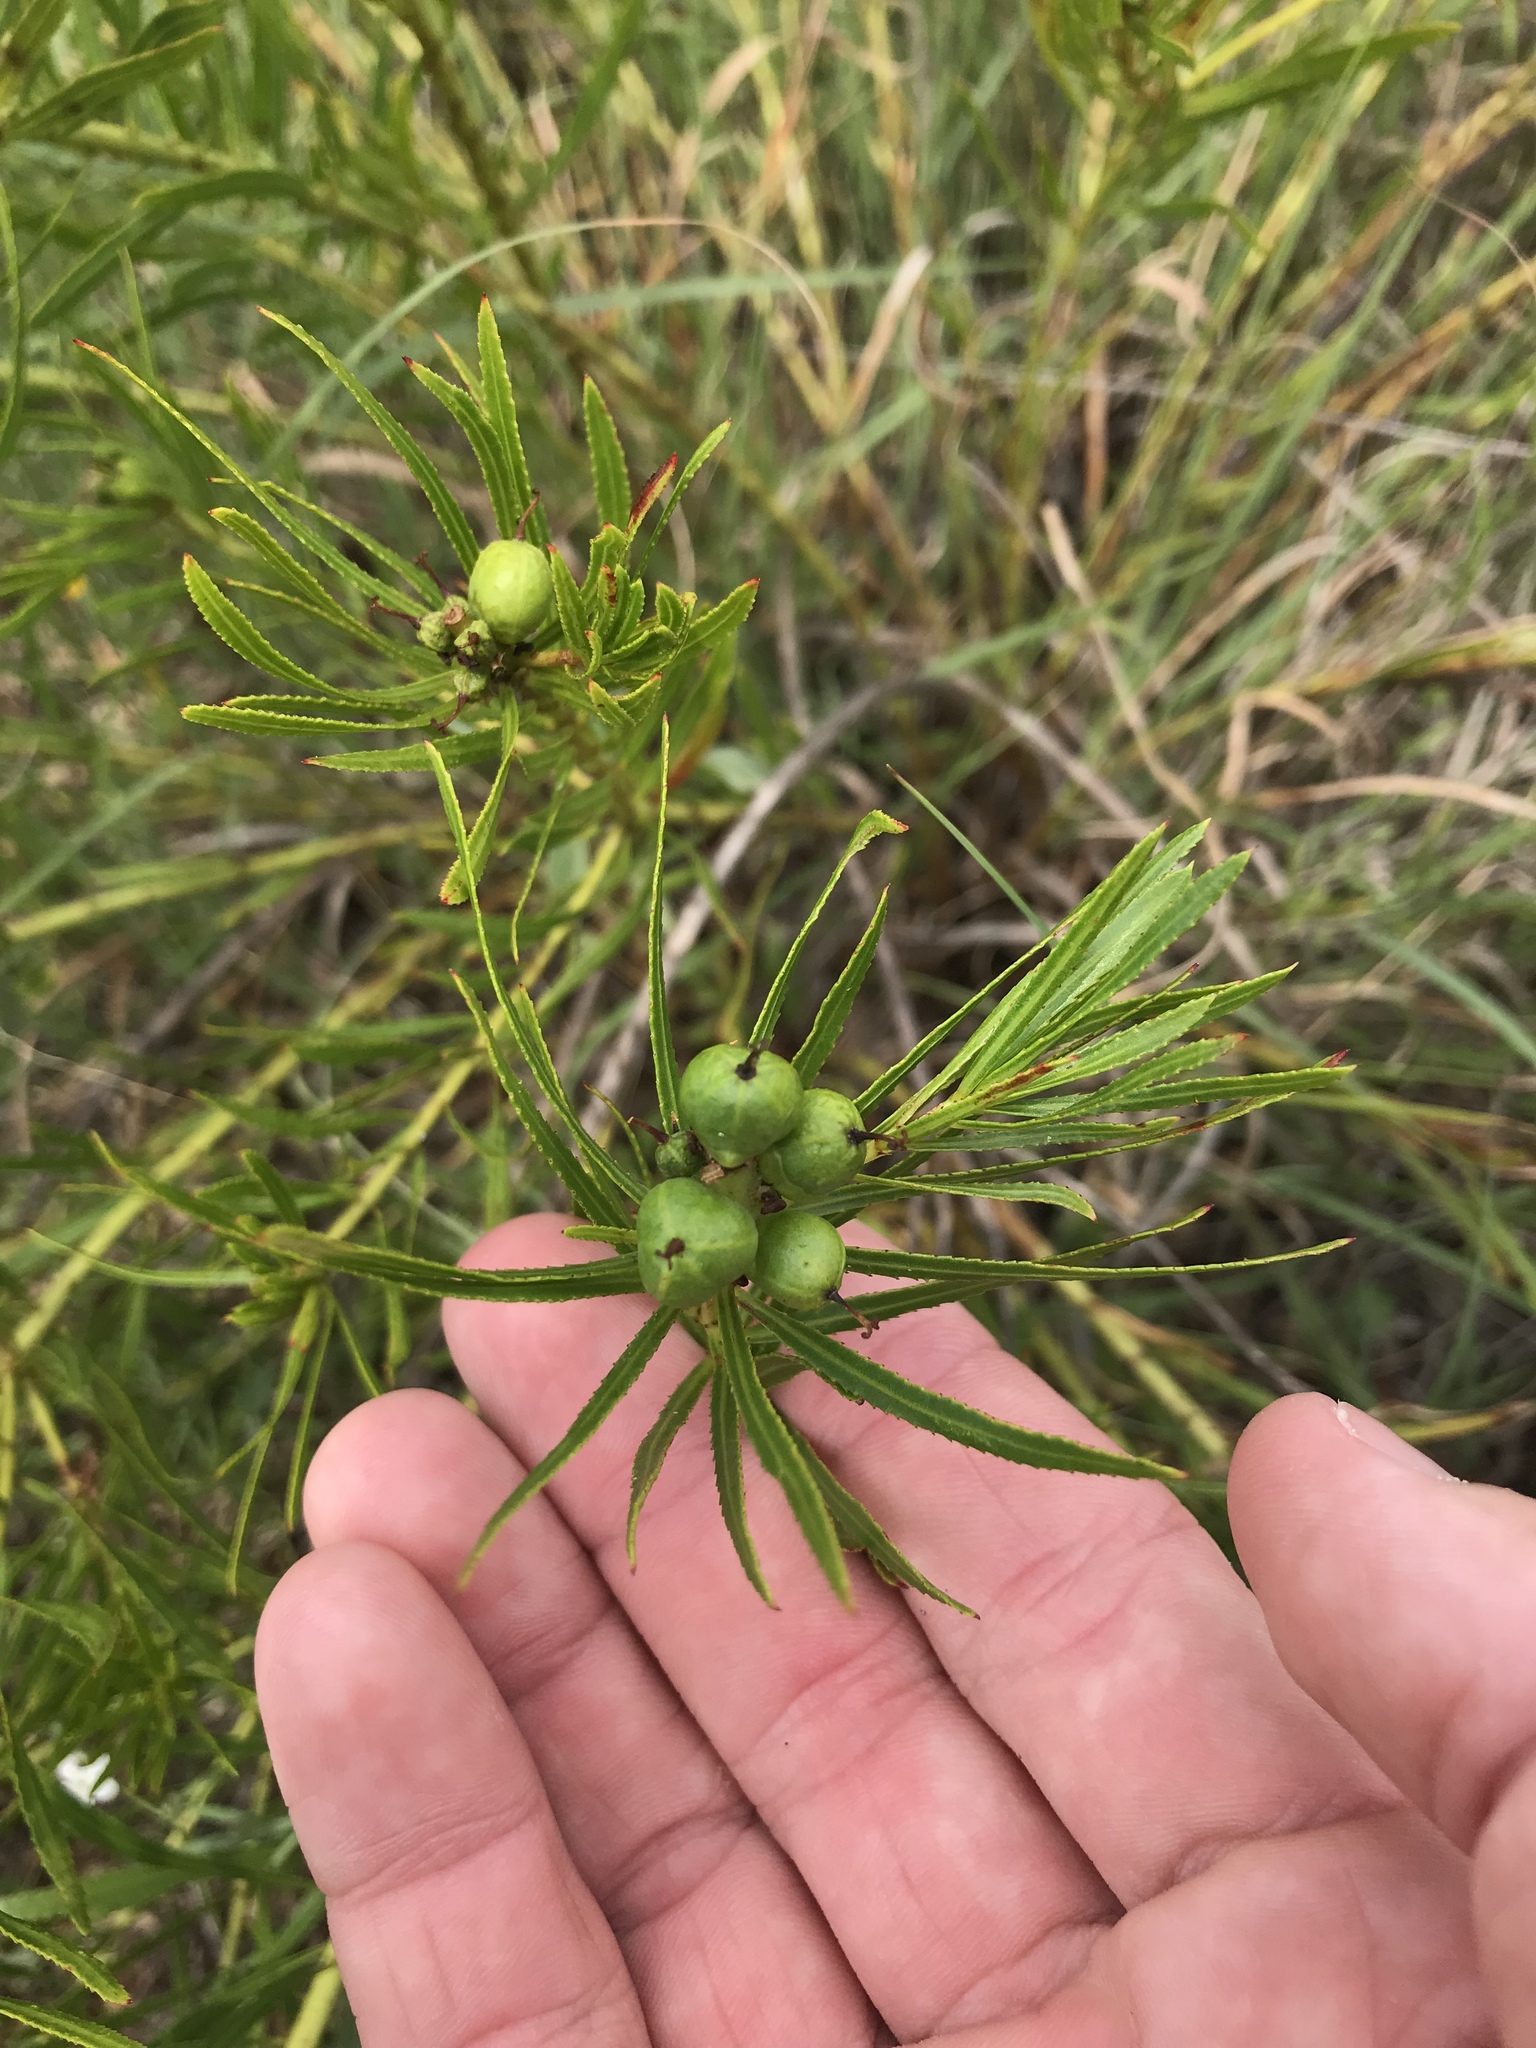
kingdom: Plantae
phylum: Tracheophyta
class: Magnoliopsida
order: Malpighiales
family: Euphorbiaceae
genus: Stillingia
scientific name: Stillingia texana
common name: Texas stillingia
